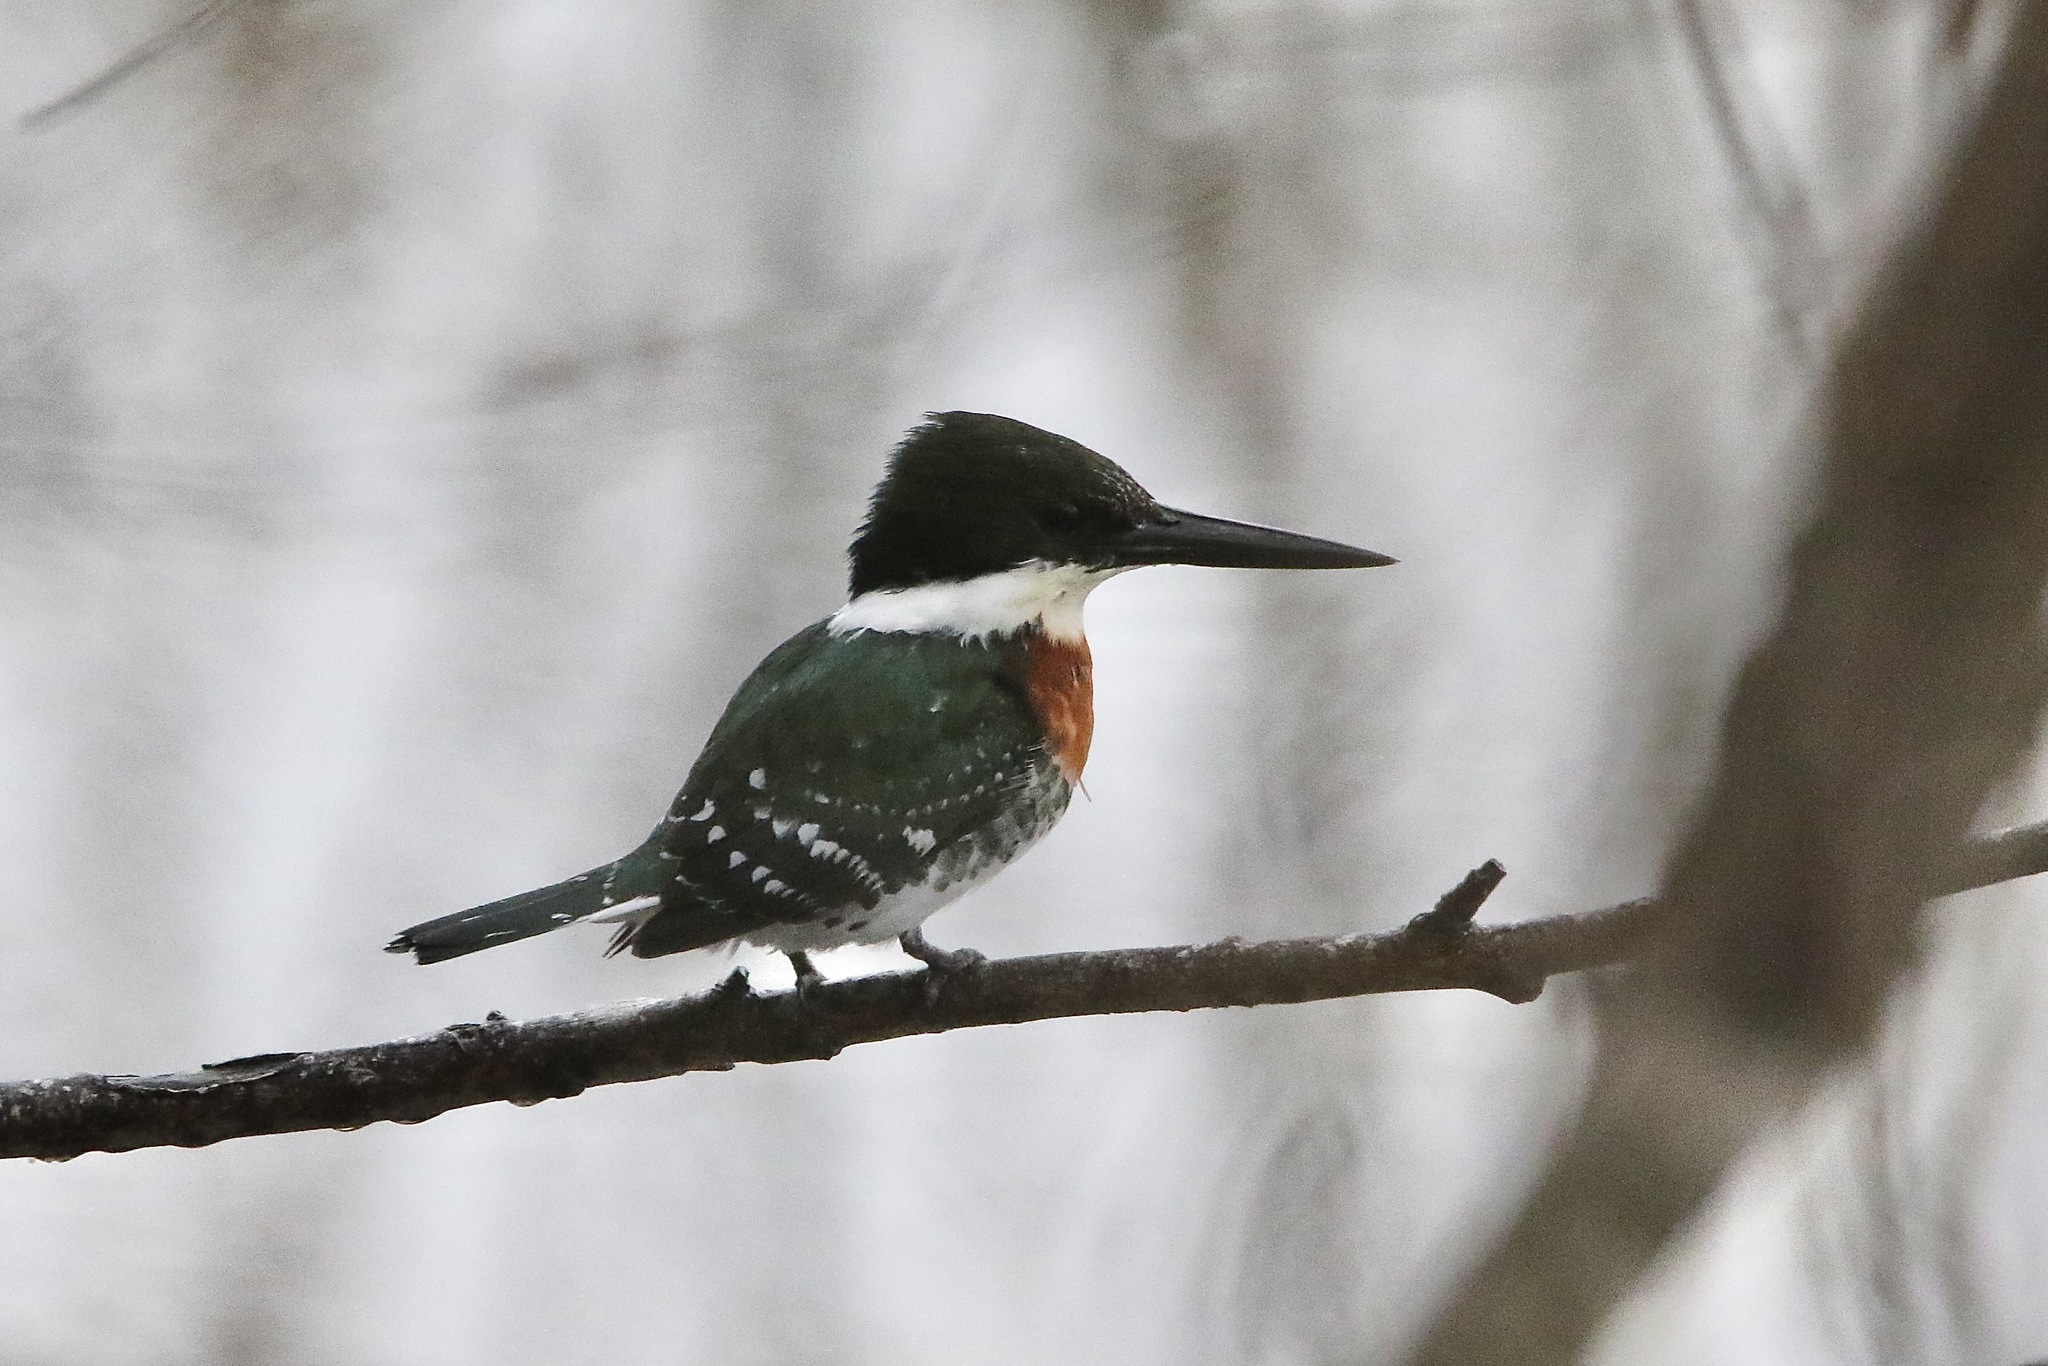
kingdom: Animalia
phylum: Chordata
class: Aves
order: Coraciiformes
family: Alcedinidae
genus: Chloroceryle
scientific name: Chloroceryle americana
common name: Green kingfisher
